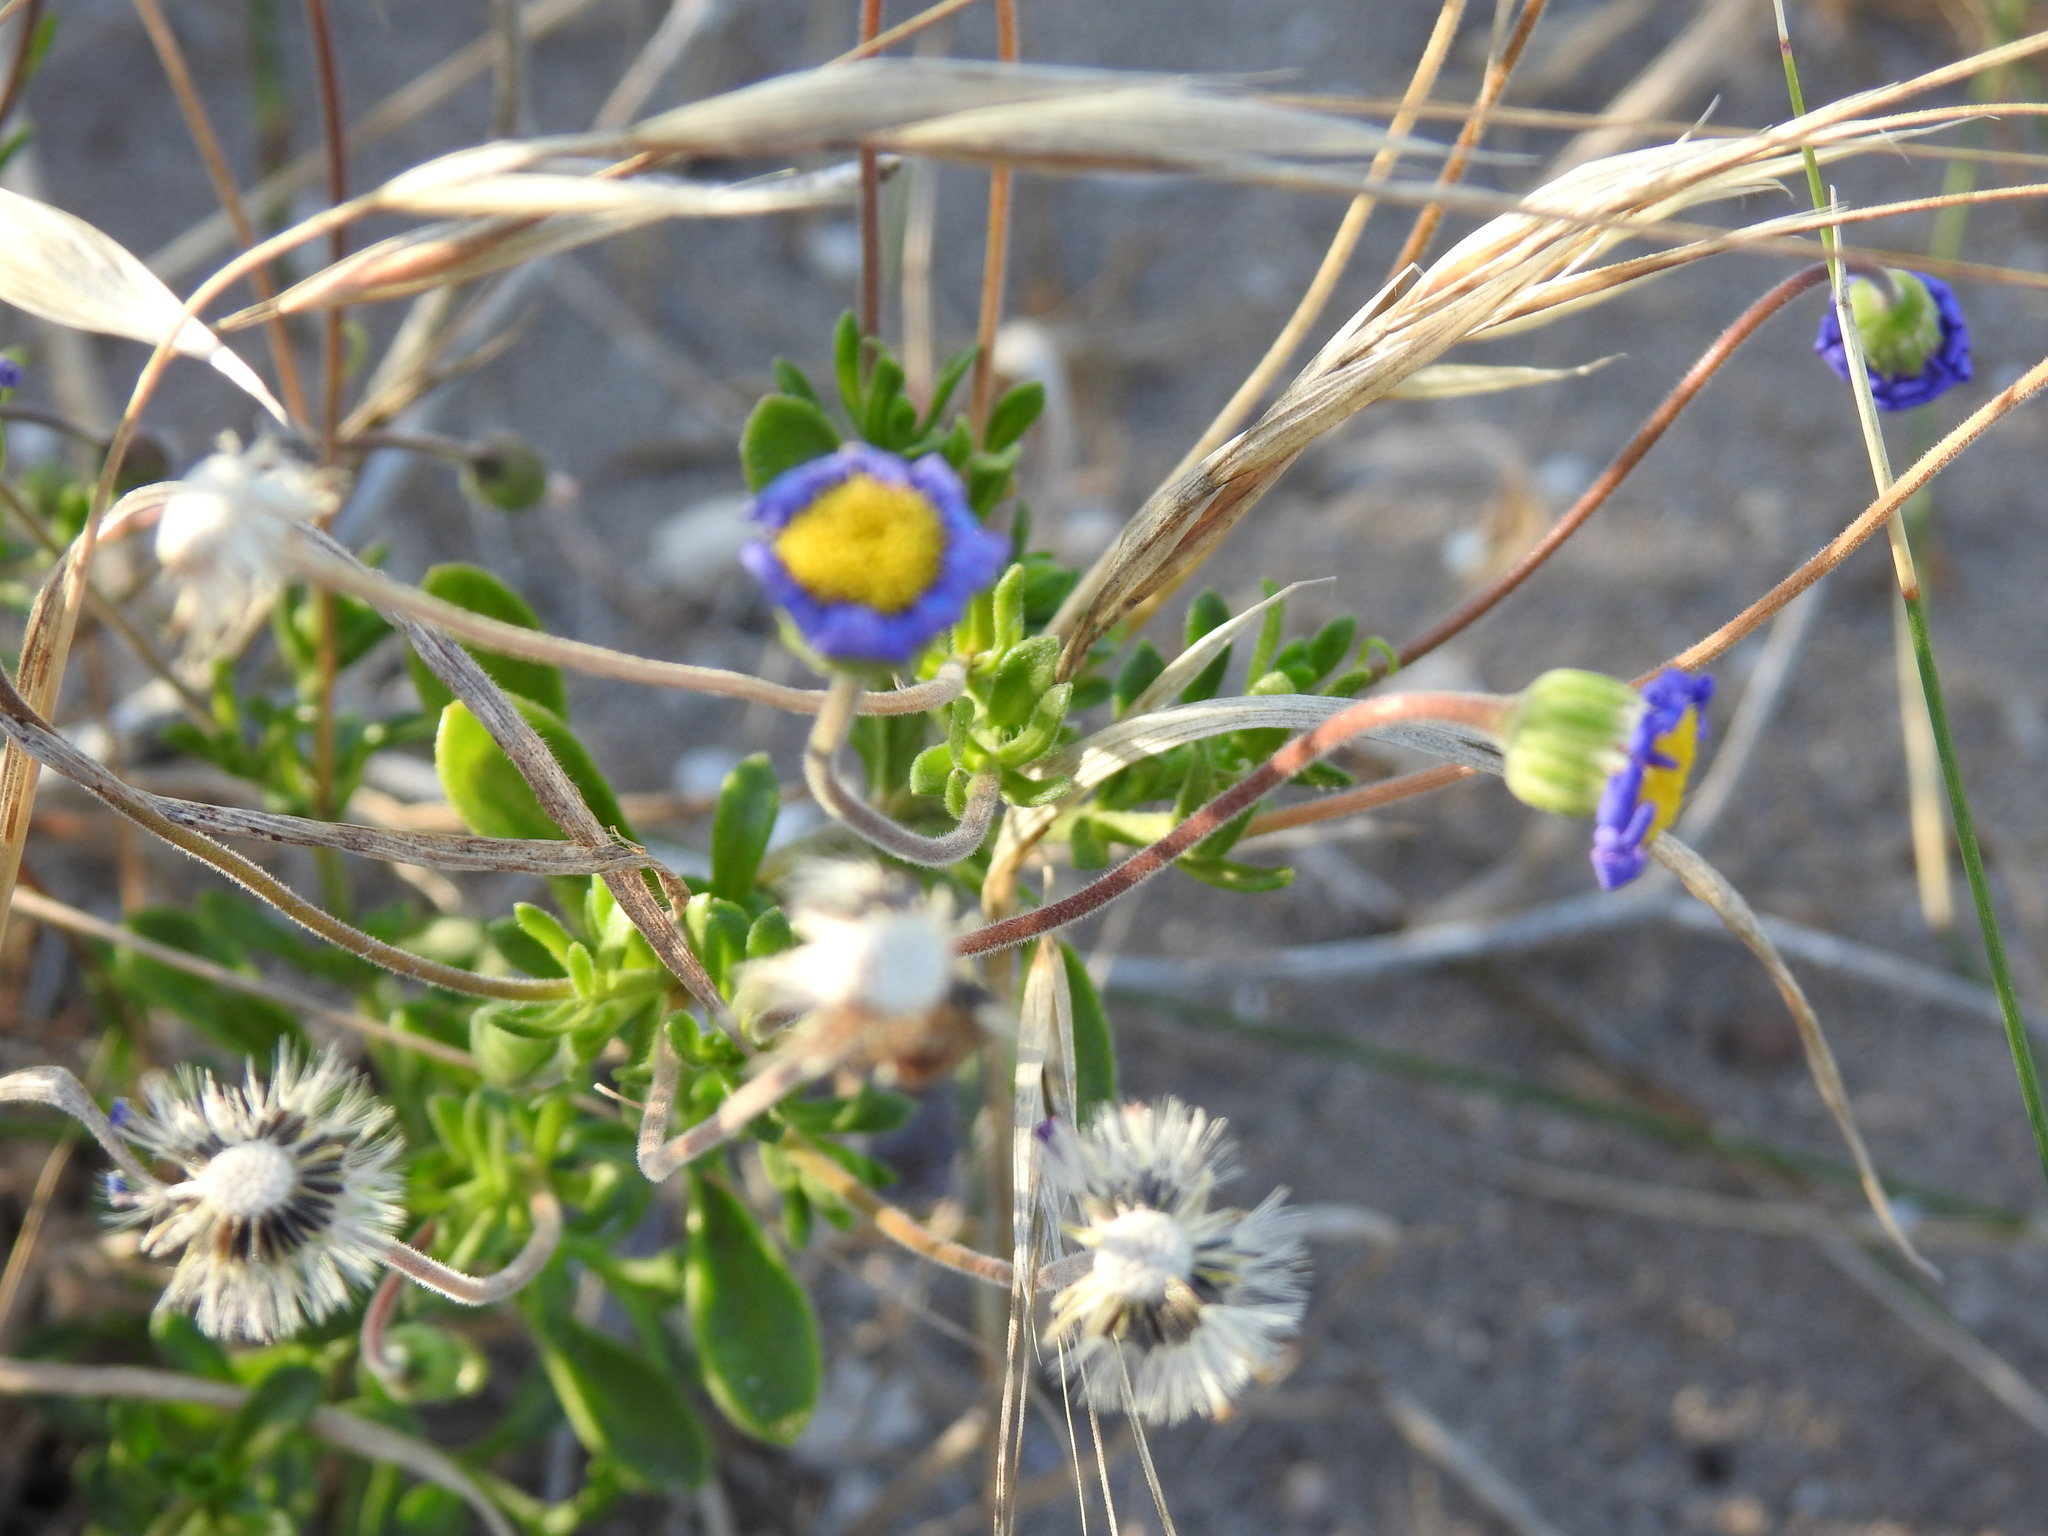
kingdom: Plantae
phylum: Tracheophyta
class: Magnoliopsida
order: Asterales
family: Asteraceae
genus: Felicia
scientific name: Felicia amoena
